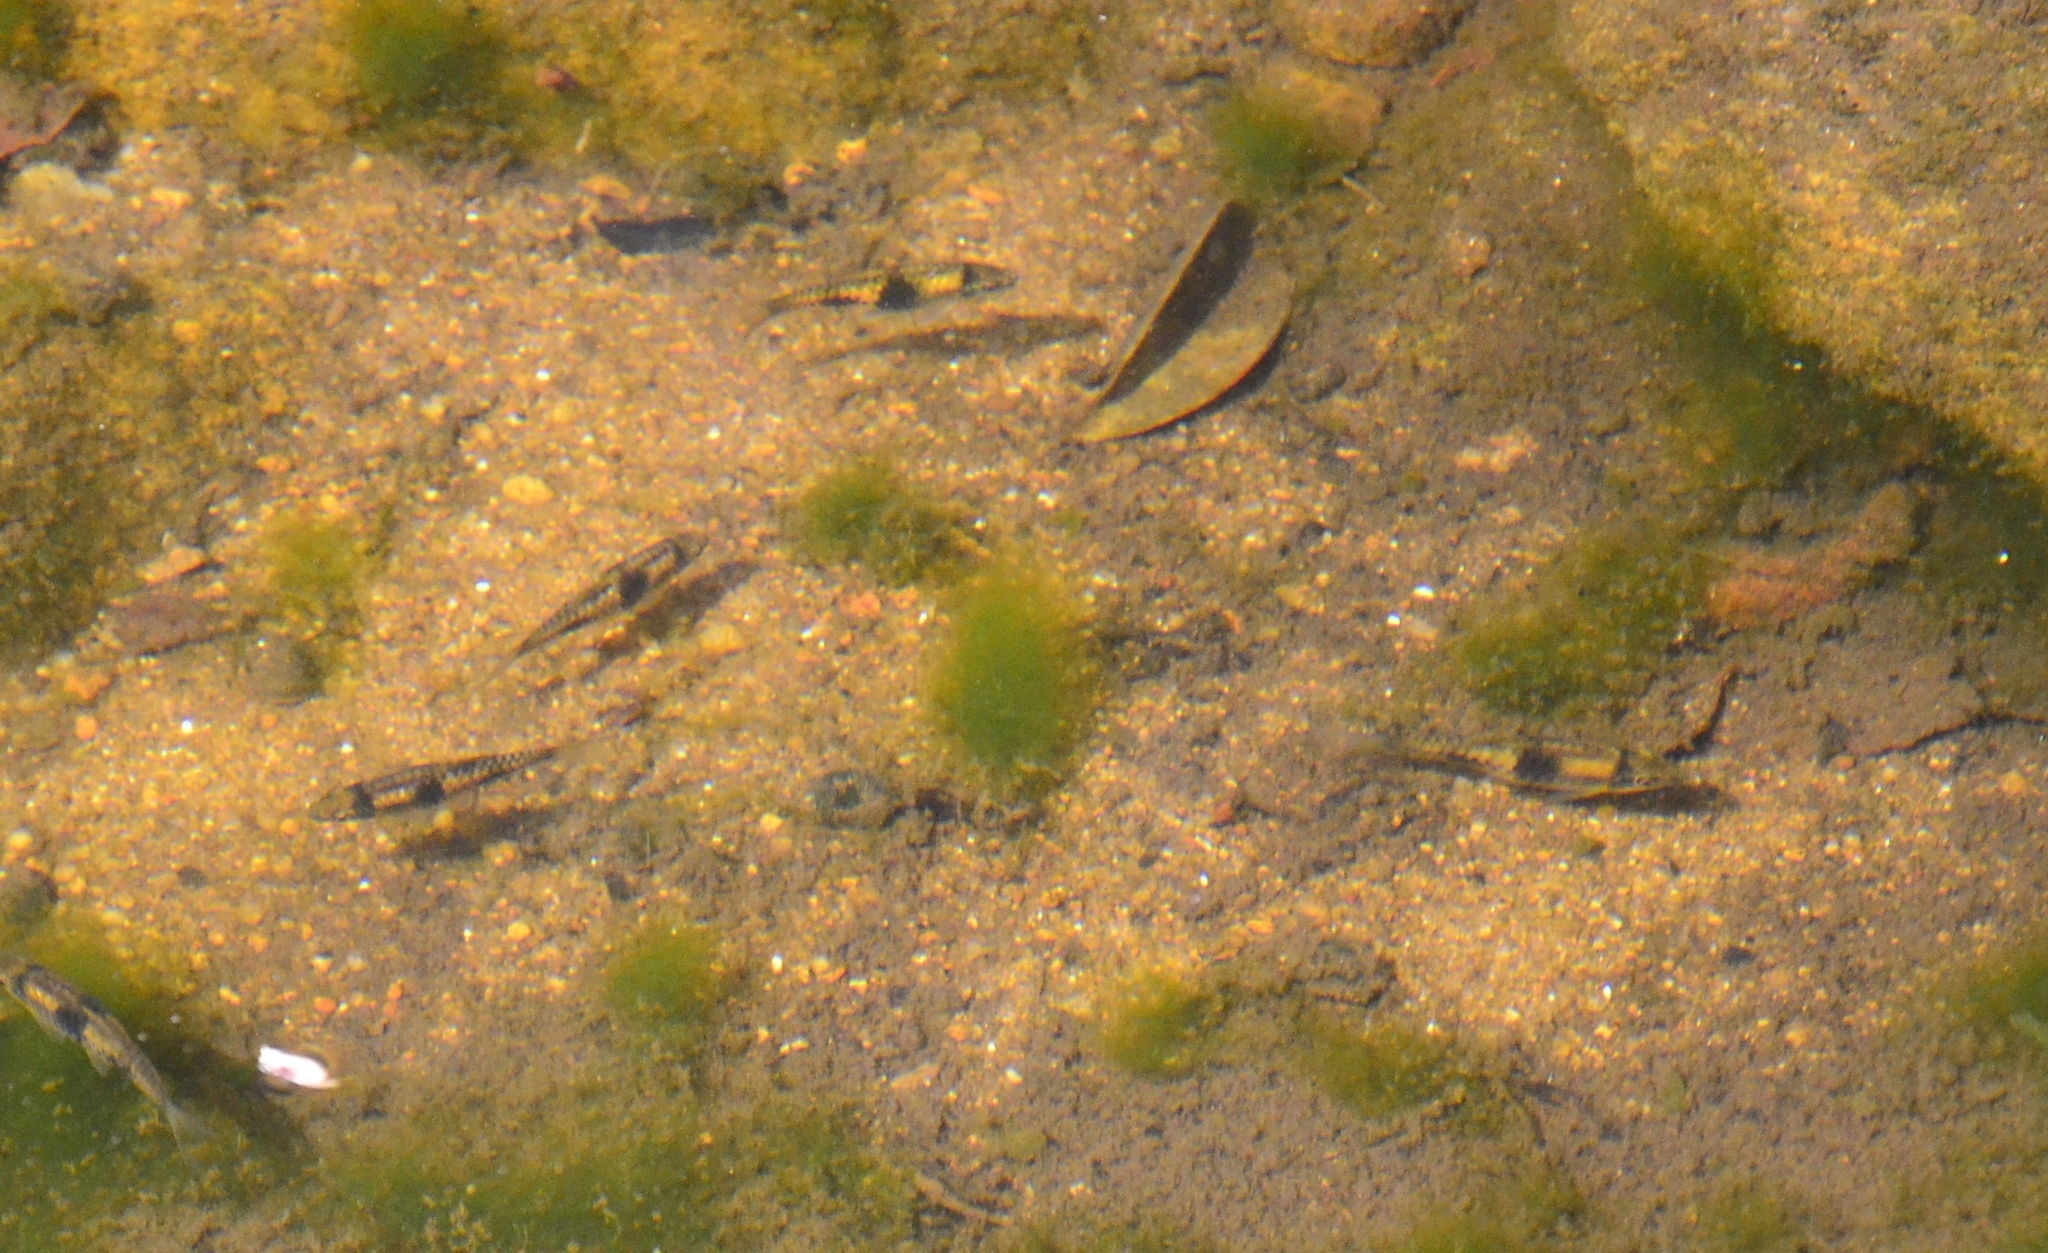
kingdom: Animalia
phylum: Chordata
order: Cypriniformes
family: Cyprinidae
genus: Haludaria
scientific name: Haludaria fasciata
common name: Melon barb
